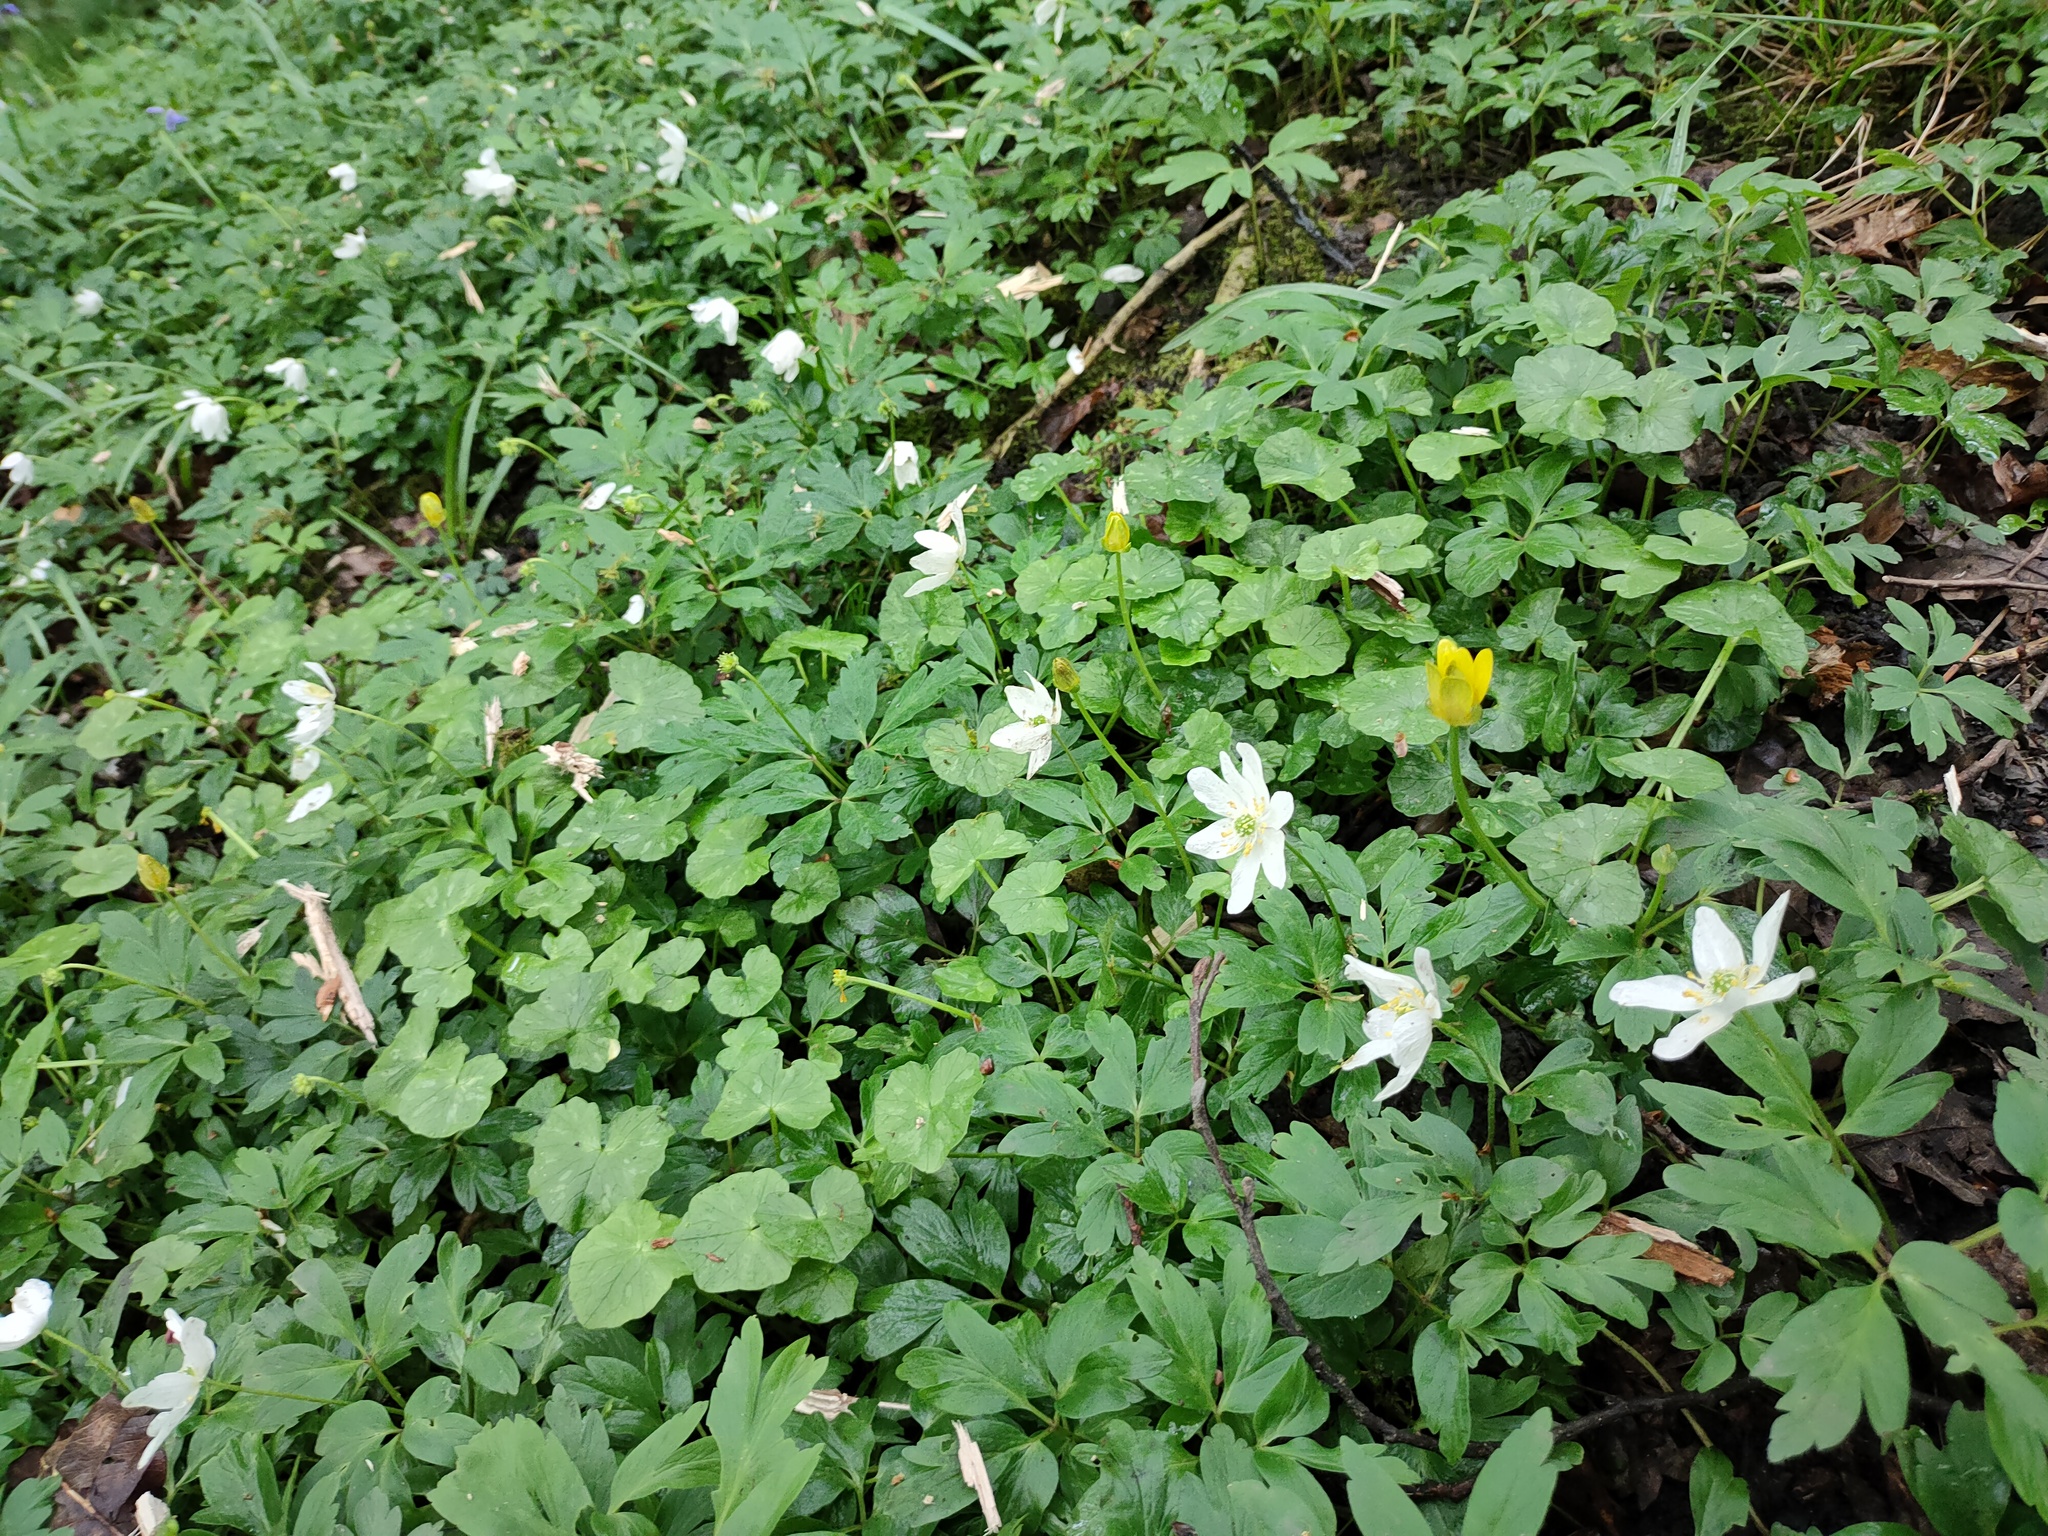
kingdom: Plantae
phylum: Tracheophyta
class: Magnoliopsida
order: Ranunculales
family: Ranunculaceae
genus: Anemone
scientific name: Anemone nemorosa
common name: Wood anemone
